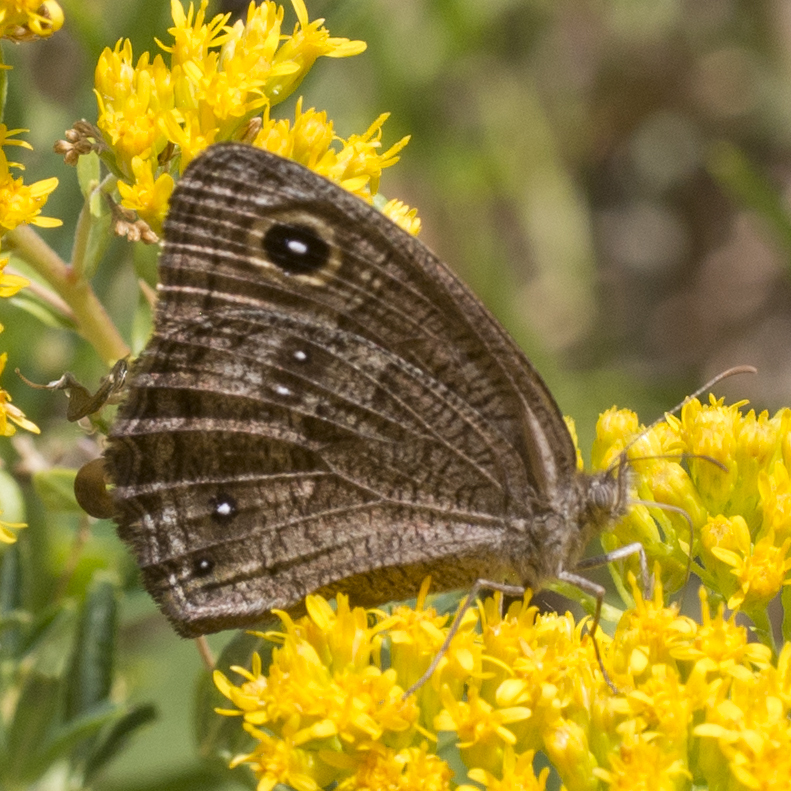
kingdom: Animalia
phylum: Arthropoda
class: Insecta
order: Lepidoptera
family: Nymphalidae
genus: Cercyonis
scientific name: Cercyonis sthenele
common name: Great basin wood-nymph
